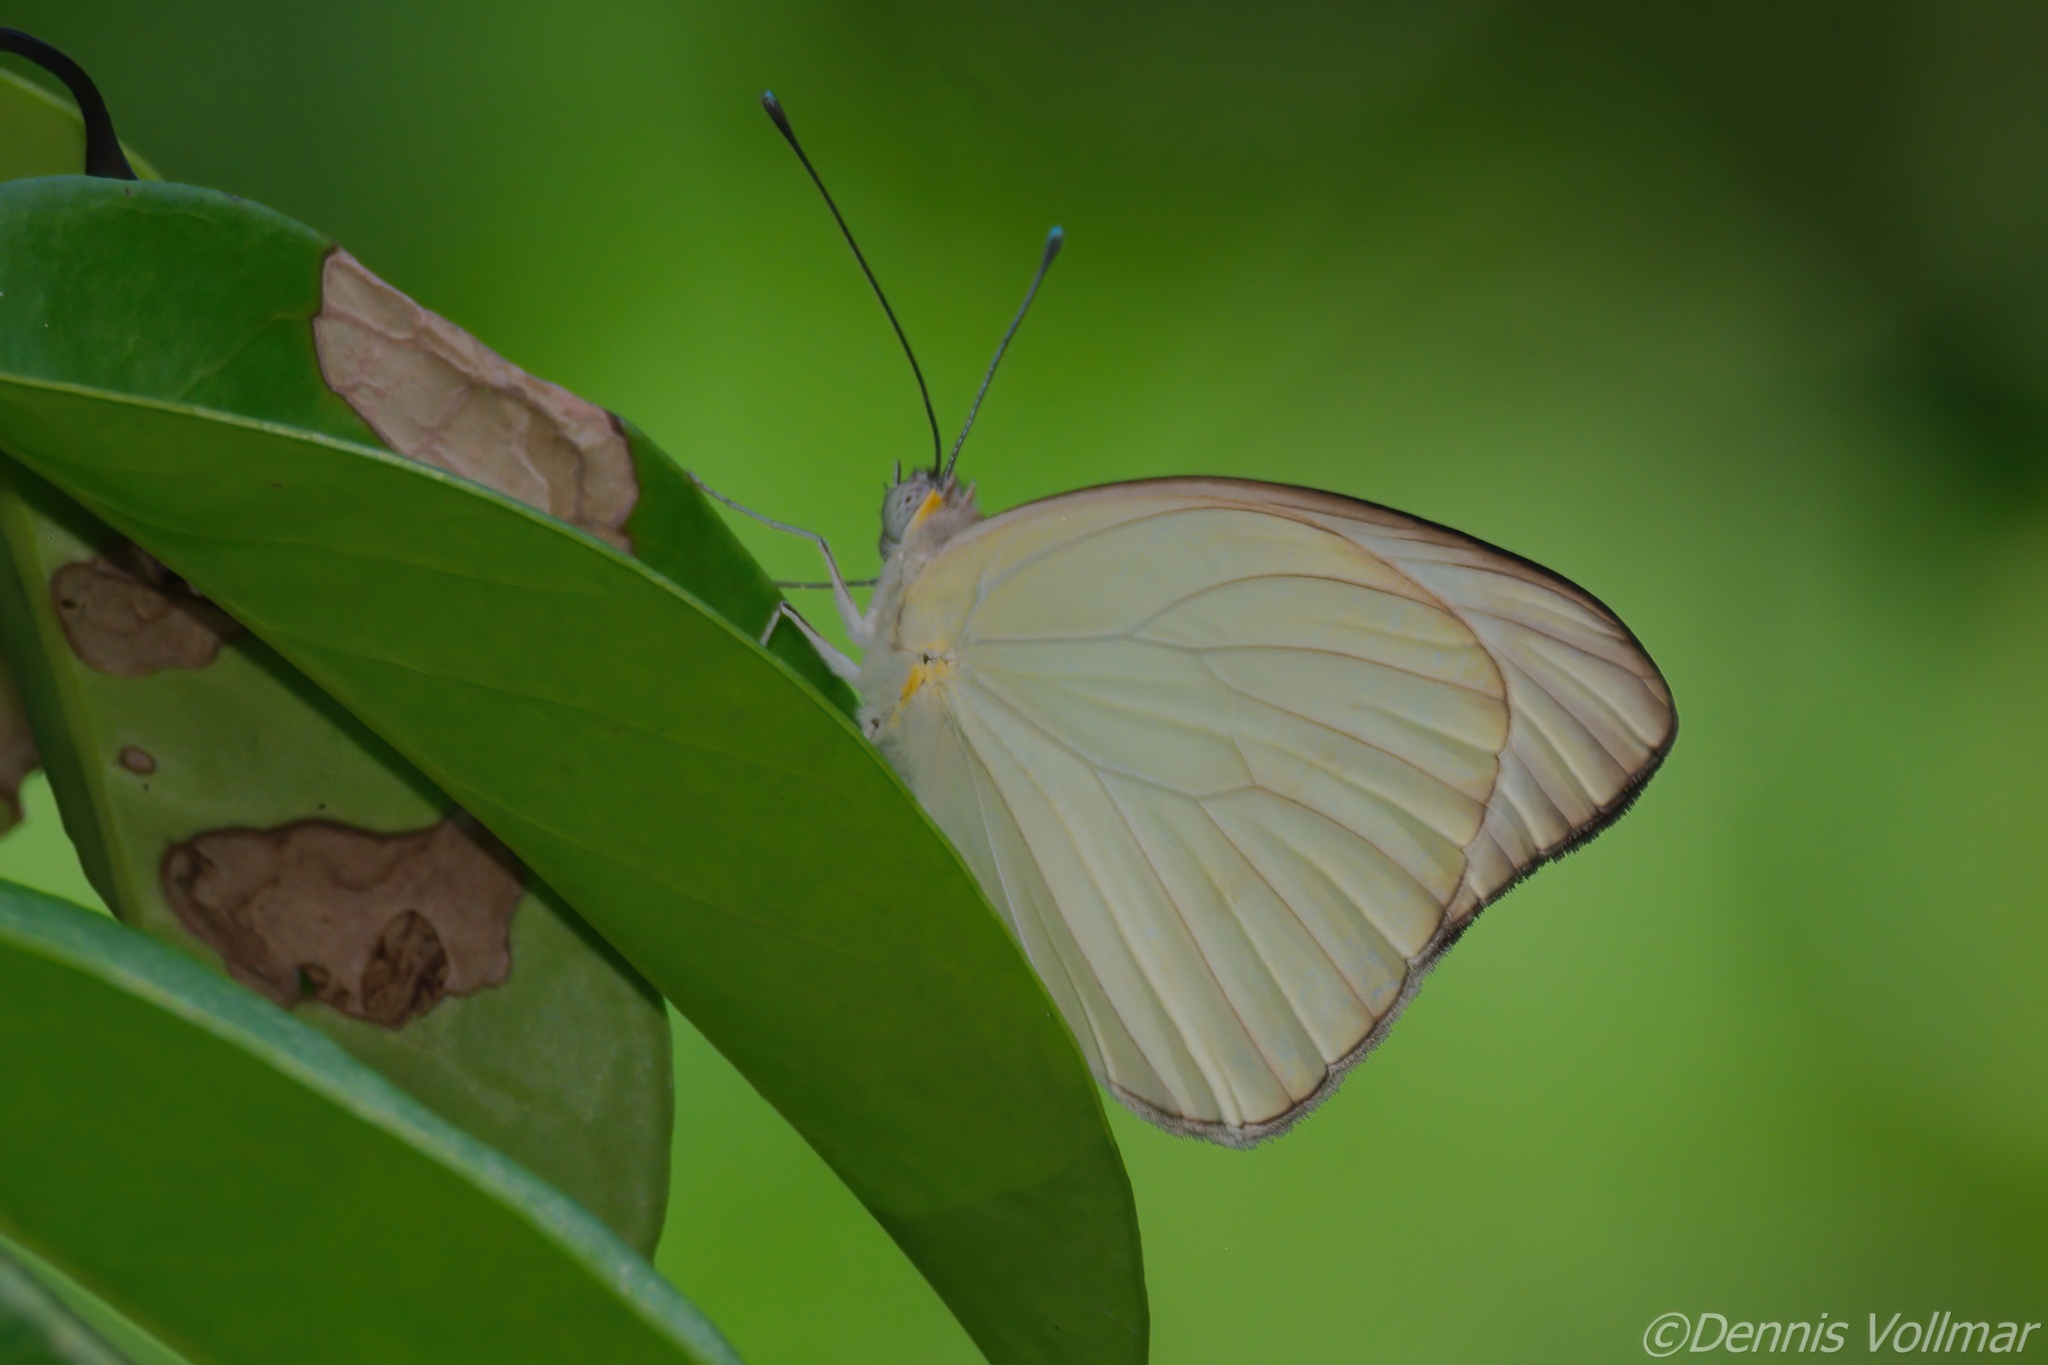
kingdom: Animalia
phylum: Arthropoda
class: Insecta
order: Lepidoptera
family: Pieridae
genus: Ascia
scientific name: Ascia monuste
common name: Great southern white
